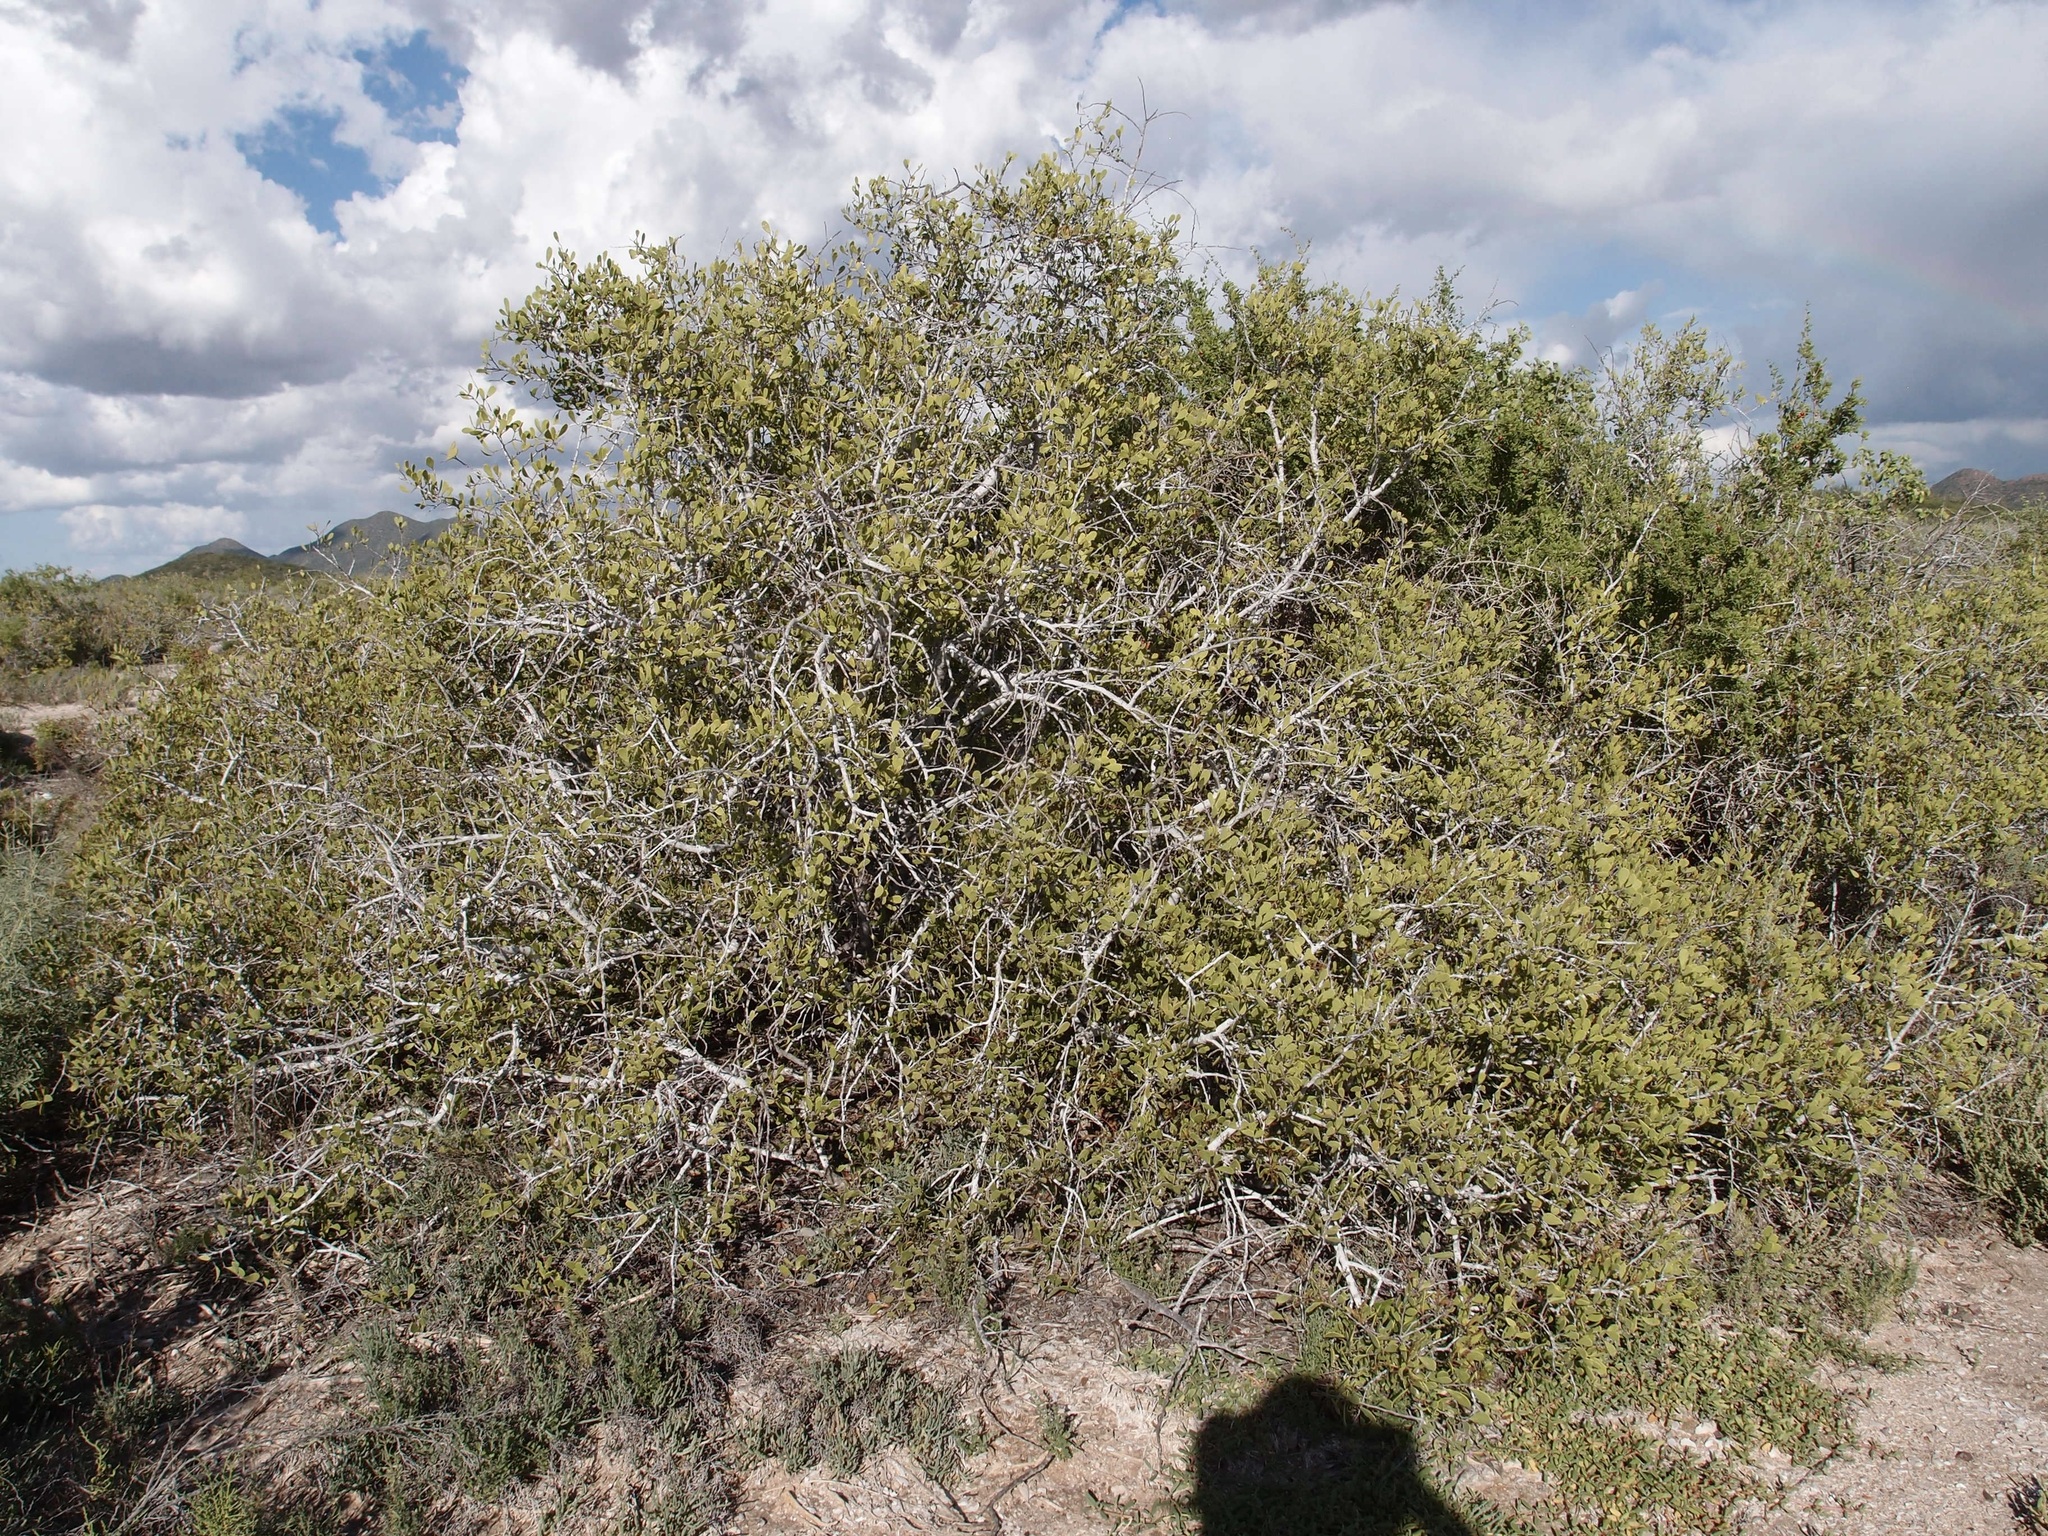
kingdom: Plantae
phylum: Tracheophyta
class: Magnoliopsida
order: Celastrales
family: Celastraceae
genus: Tricerma
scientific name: Tricerma phyllanthoides
